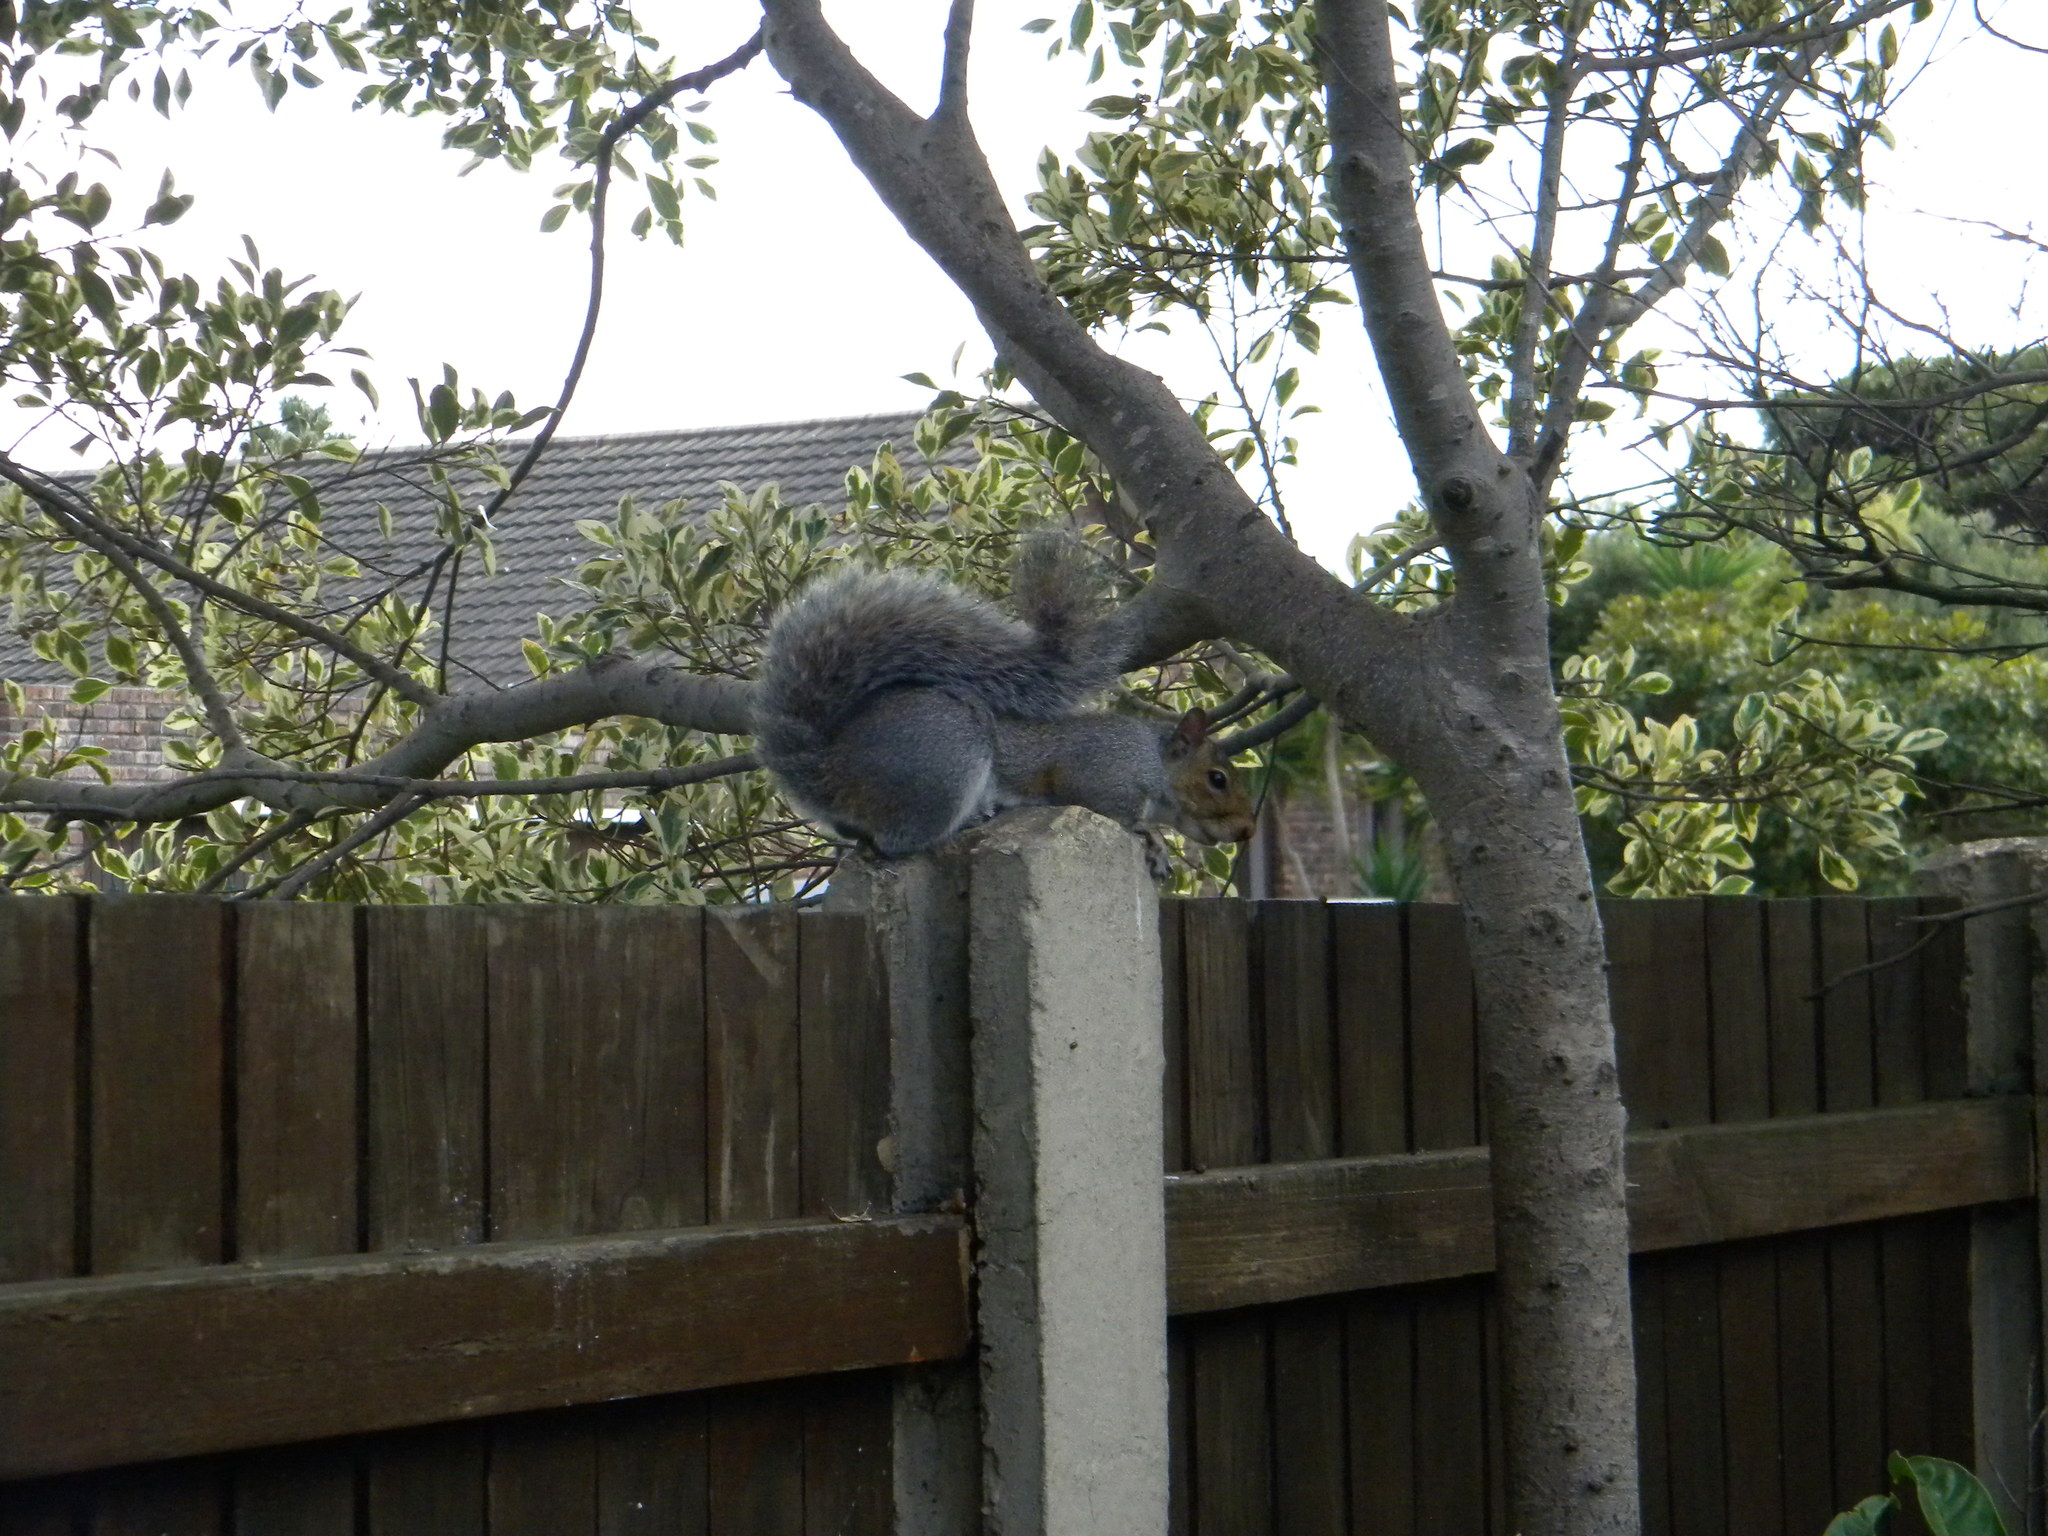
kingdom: Animalia
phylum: Chordata
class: Mammalia
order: Rodentia
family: Sciuridae
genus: Sciurus
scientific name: Sciurus carolinensis
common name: Eastern gray squirrel
